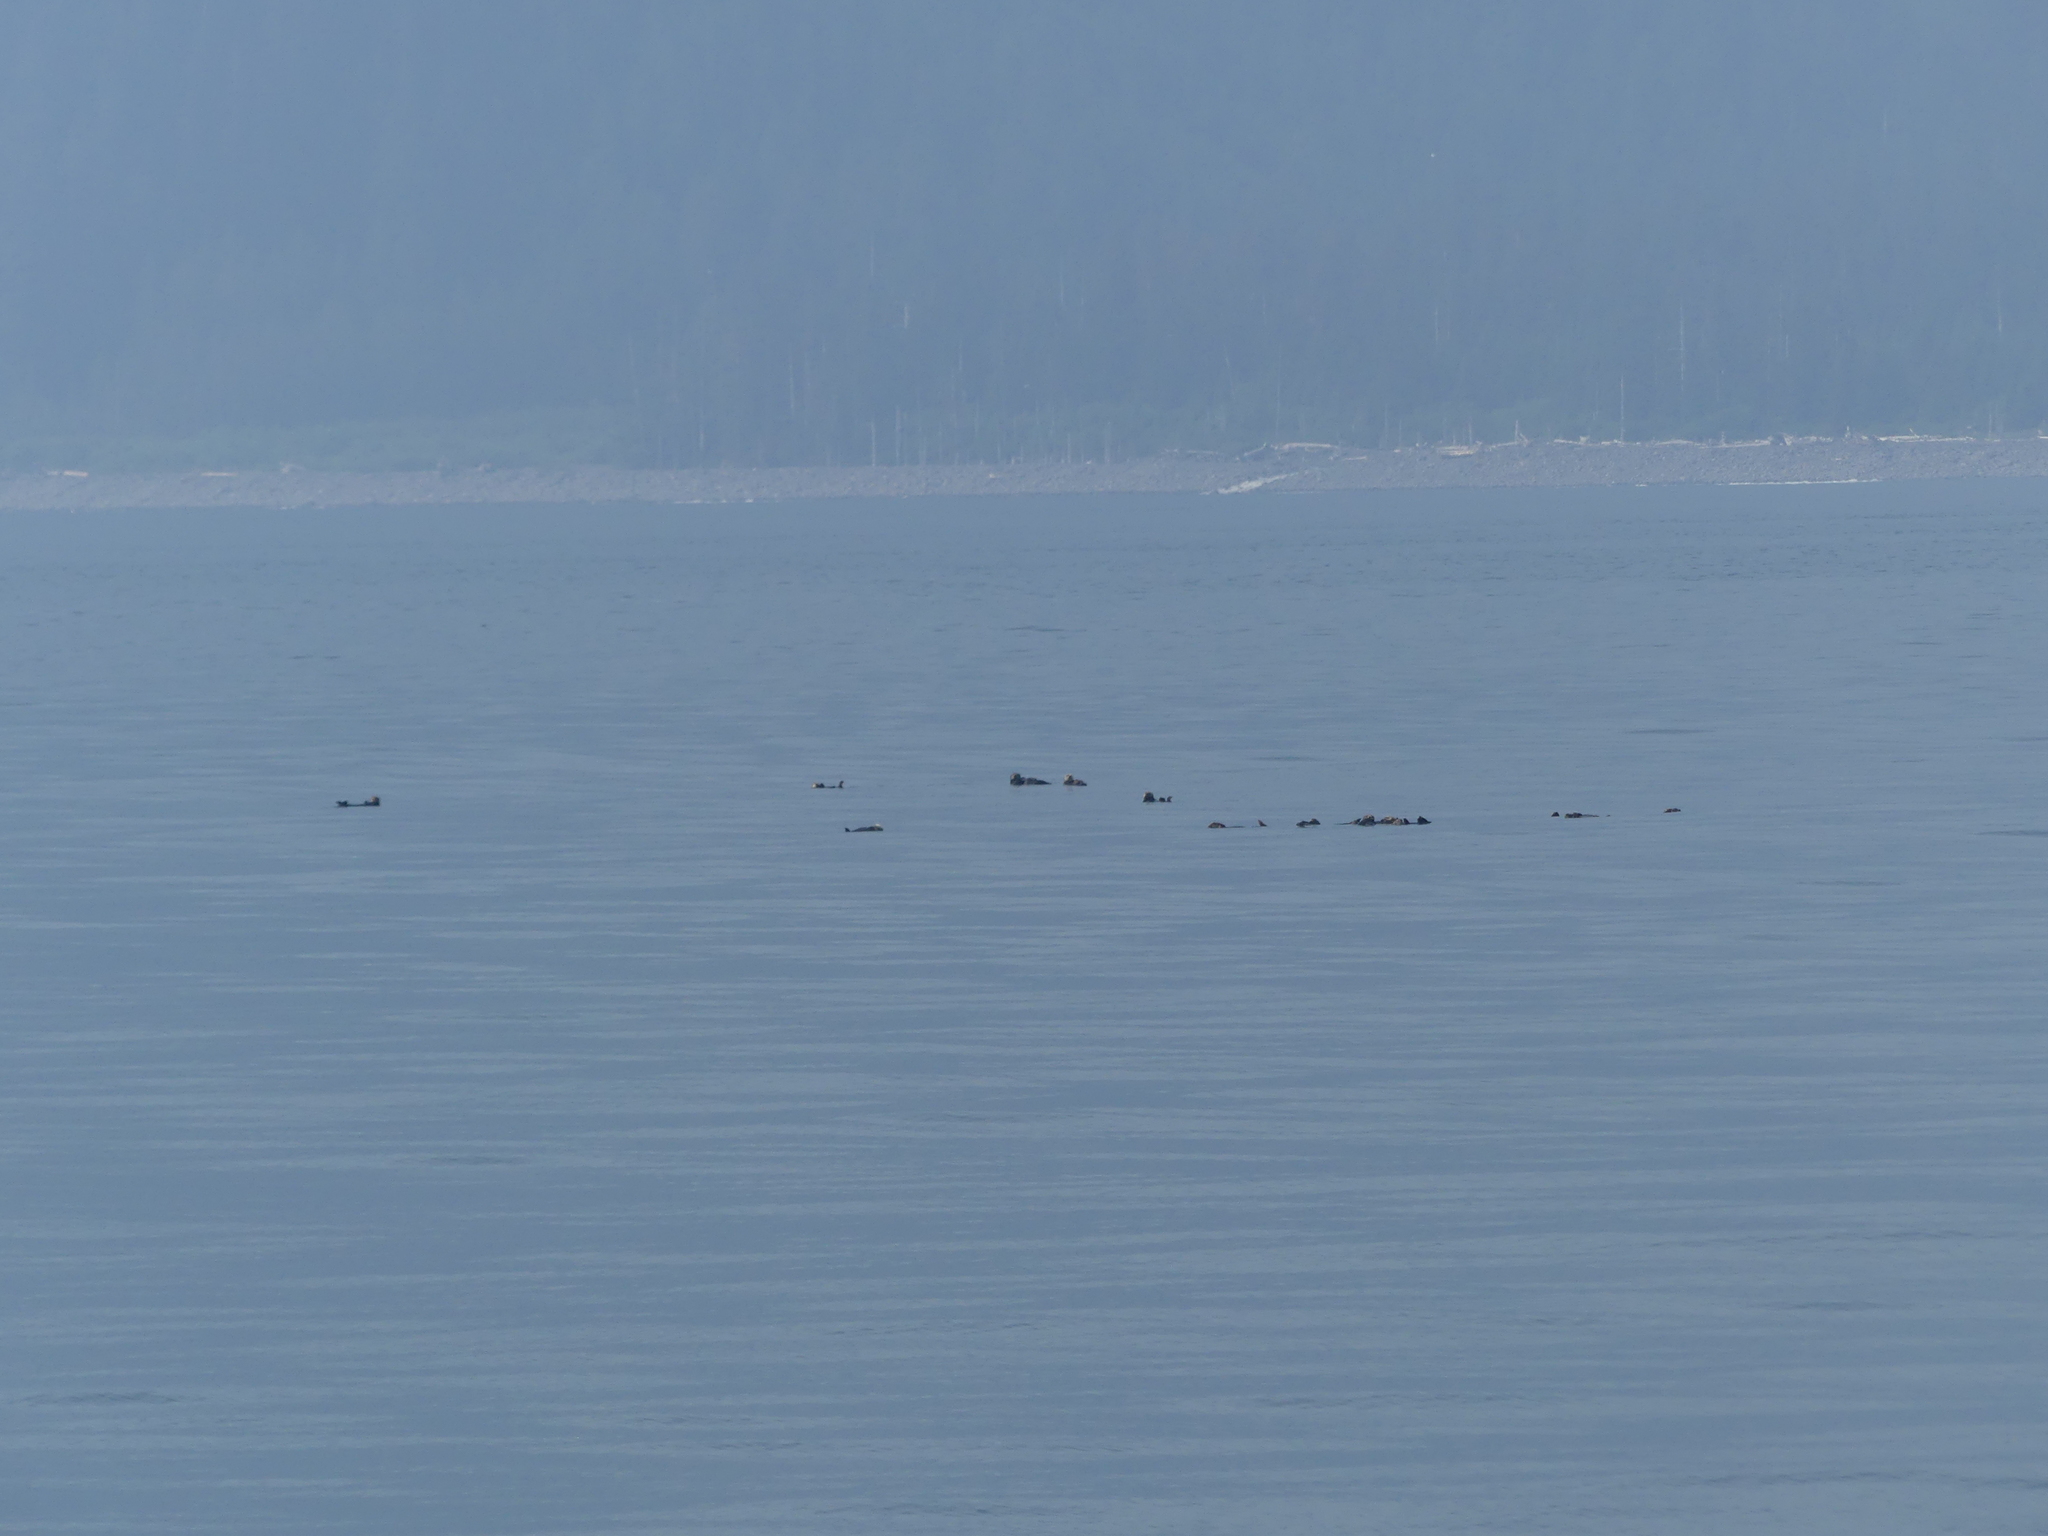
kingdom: Animalia
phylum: Chordata
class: Mammalia
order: Carnivora
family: Mustelidae
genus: Enhydra
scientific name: Enhydra lutris
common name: Sea otter
